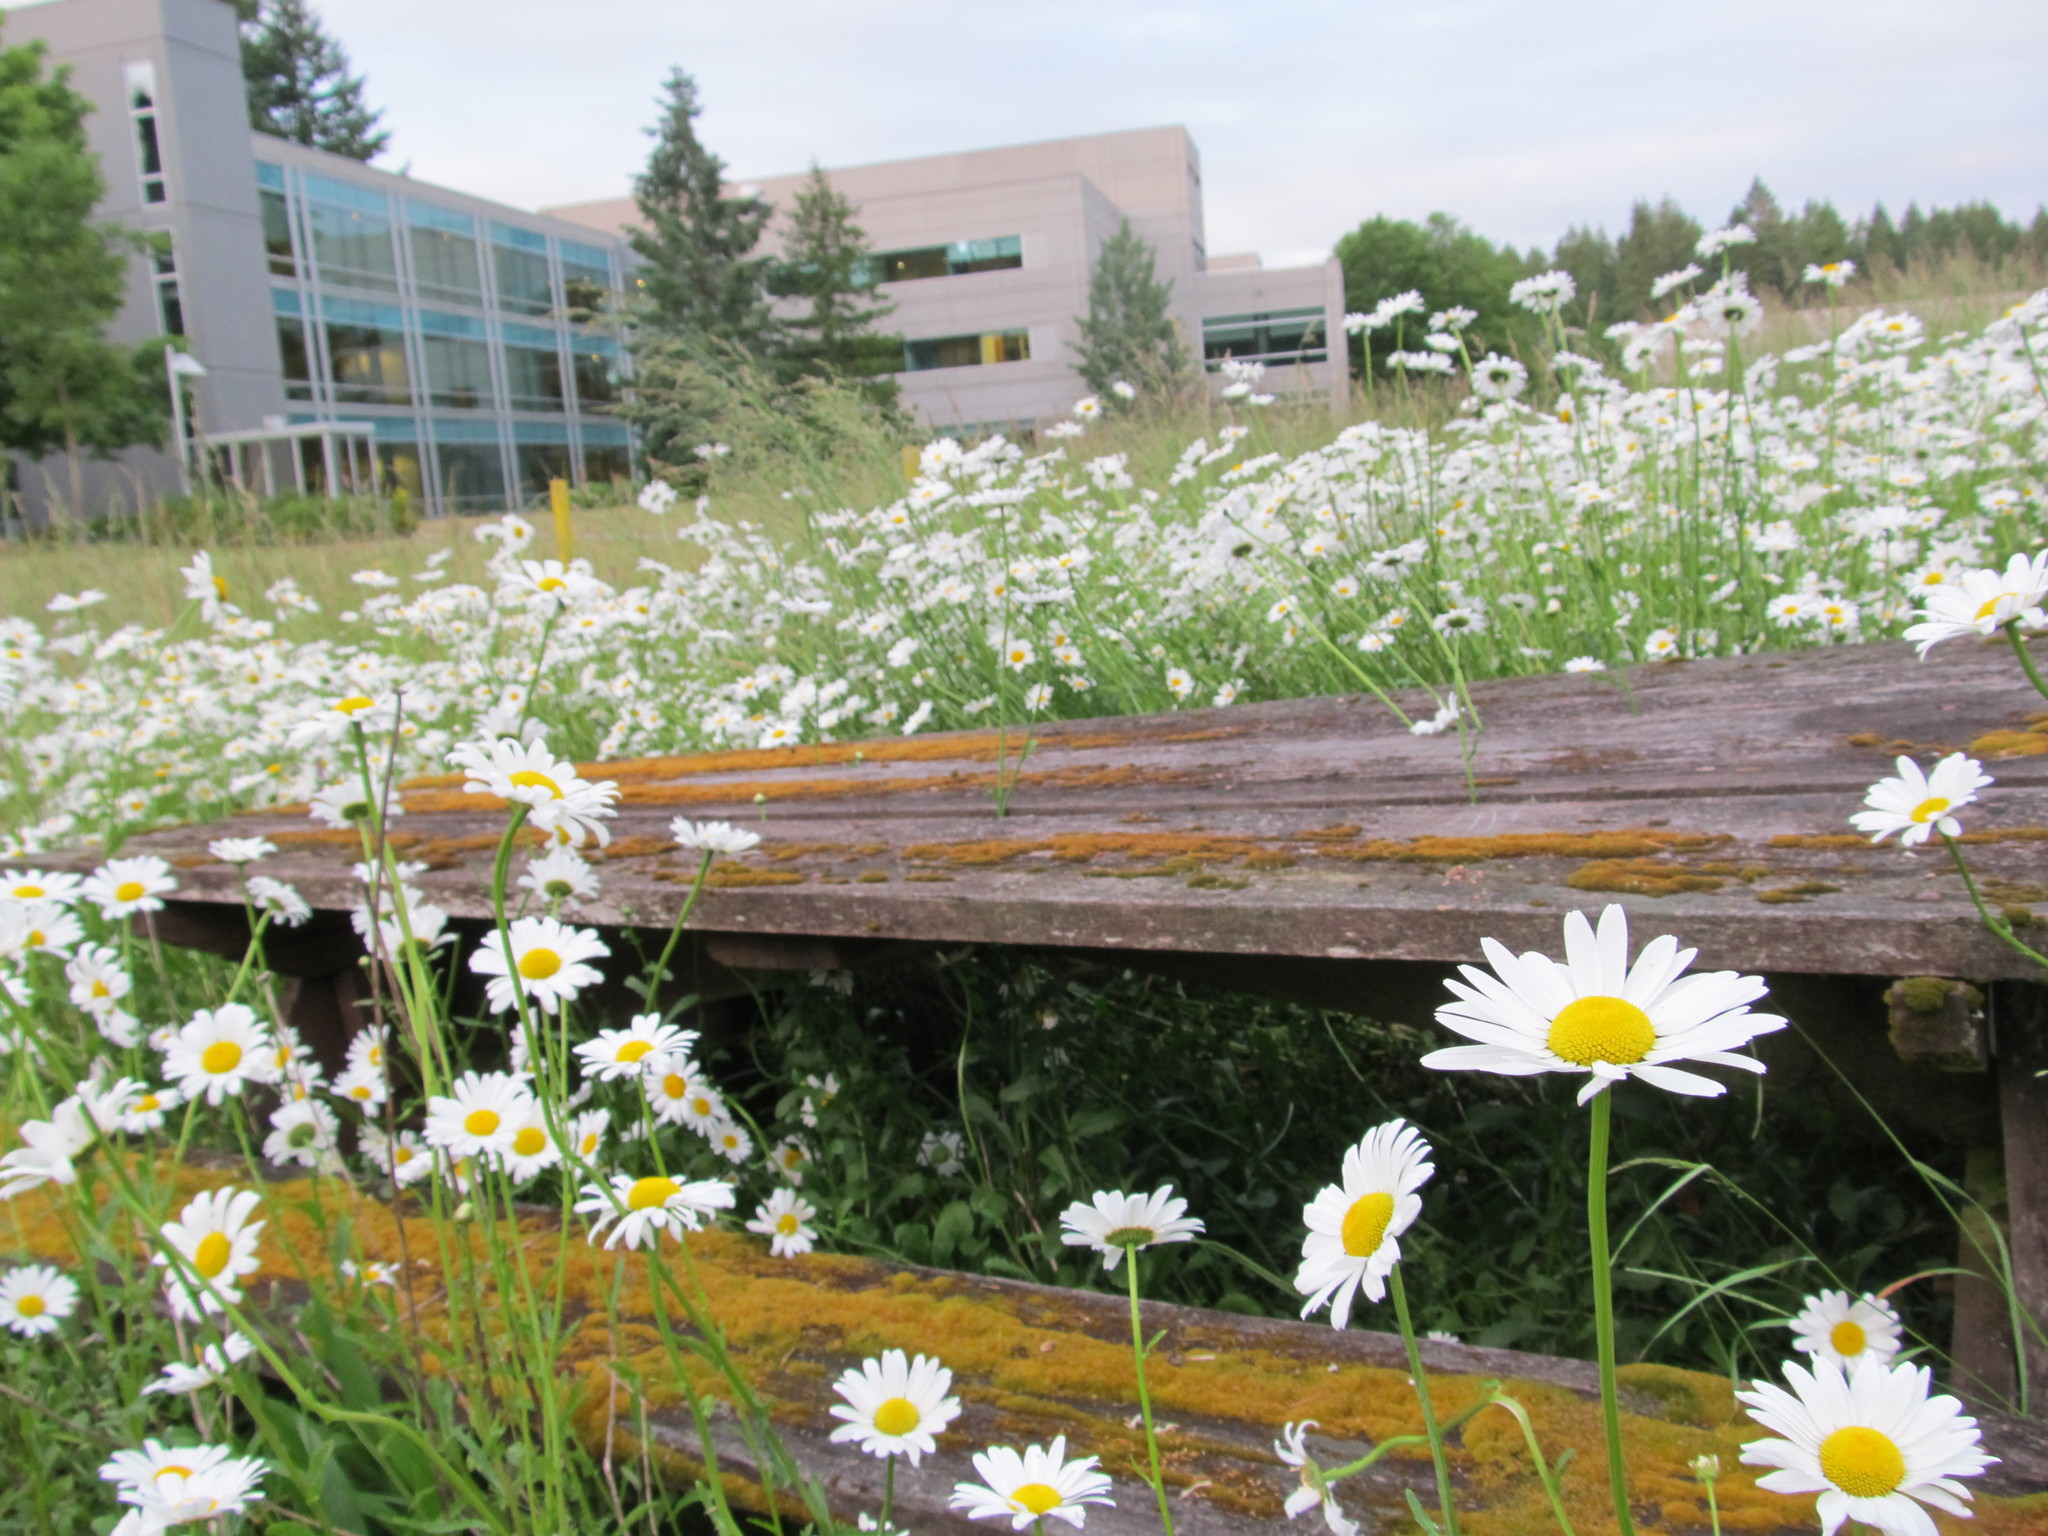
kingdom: Plantae
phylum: Tracheophyta
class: Magnoliopsida
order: Asterales
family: Asteraceae
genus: Leucanthemum
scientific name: Leucanthemum vulgare
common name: Oxeye daisy
